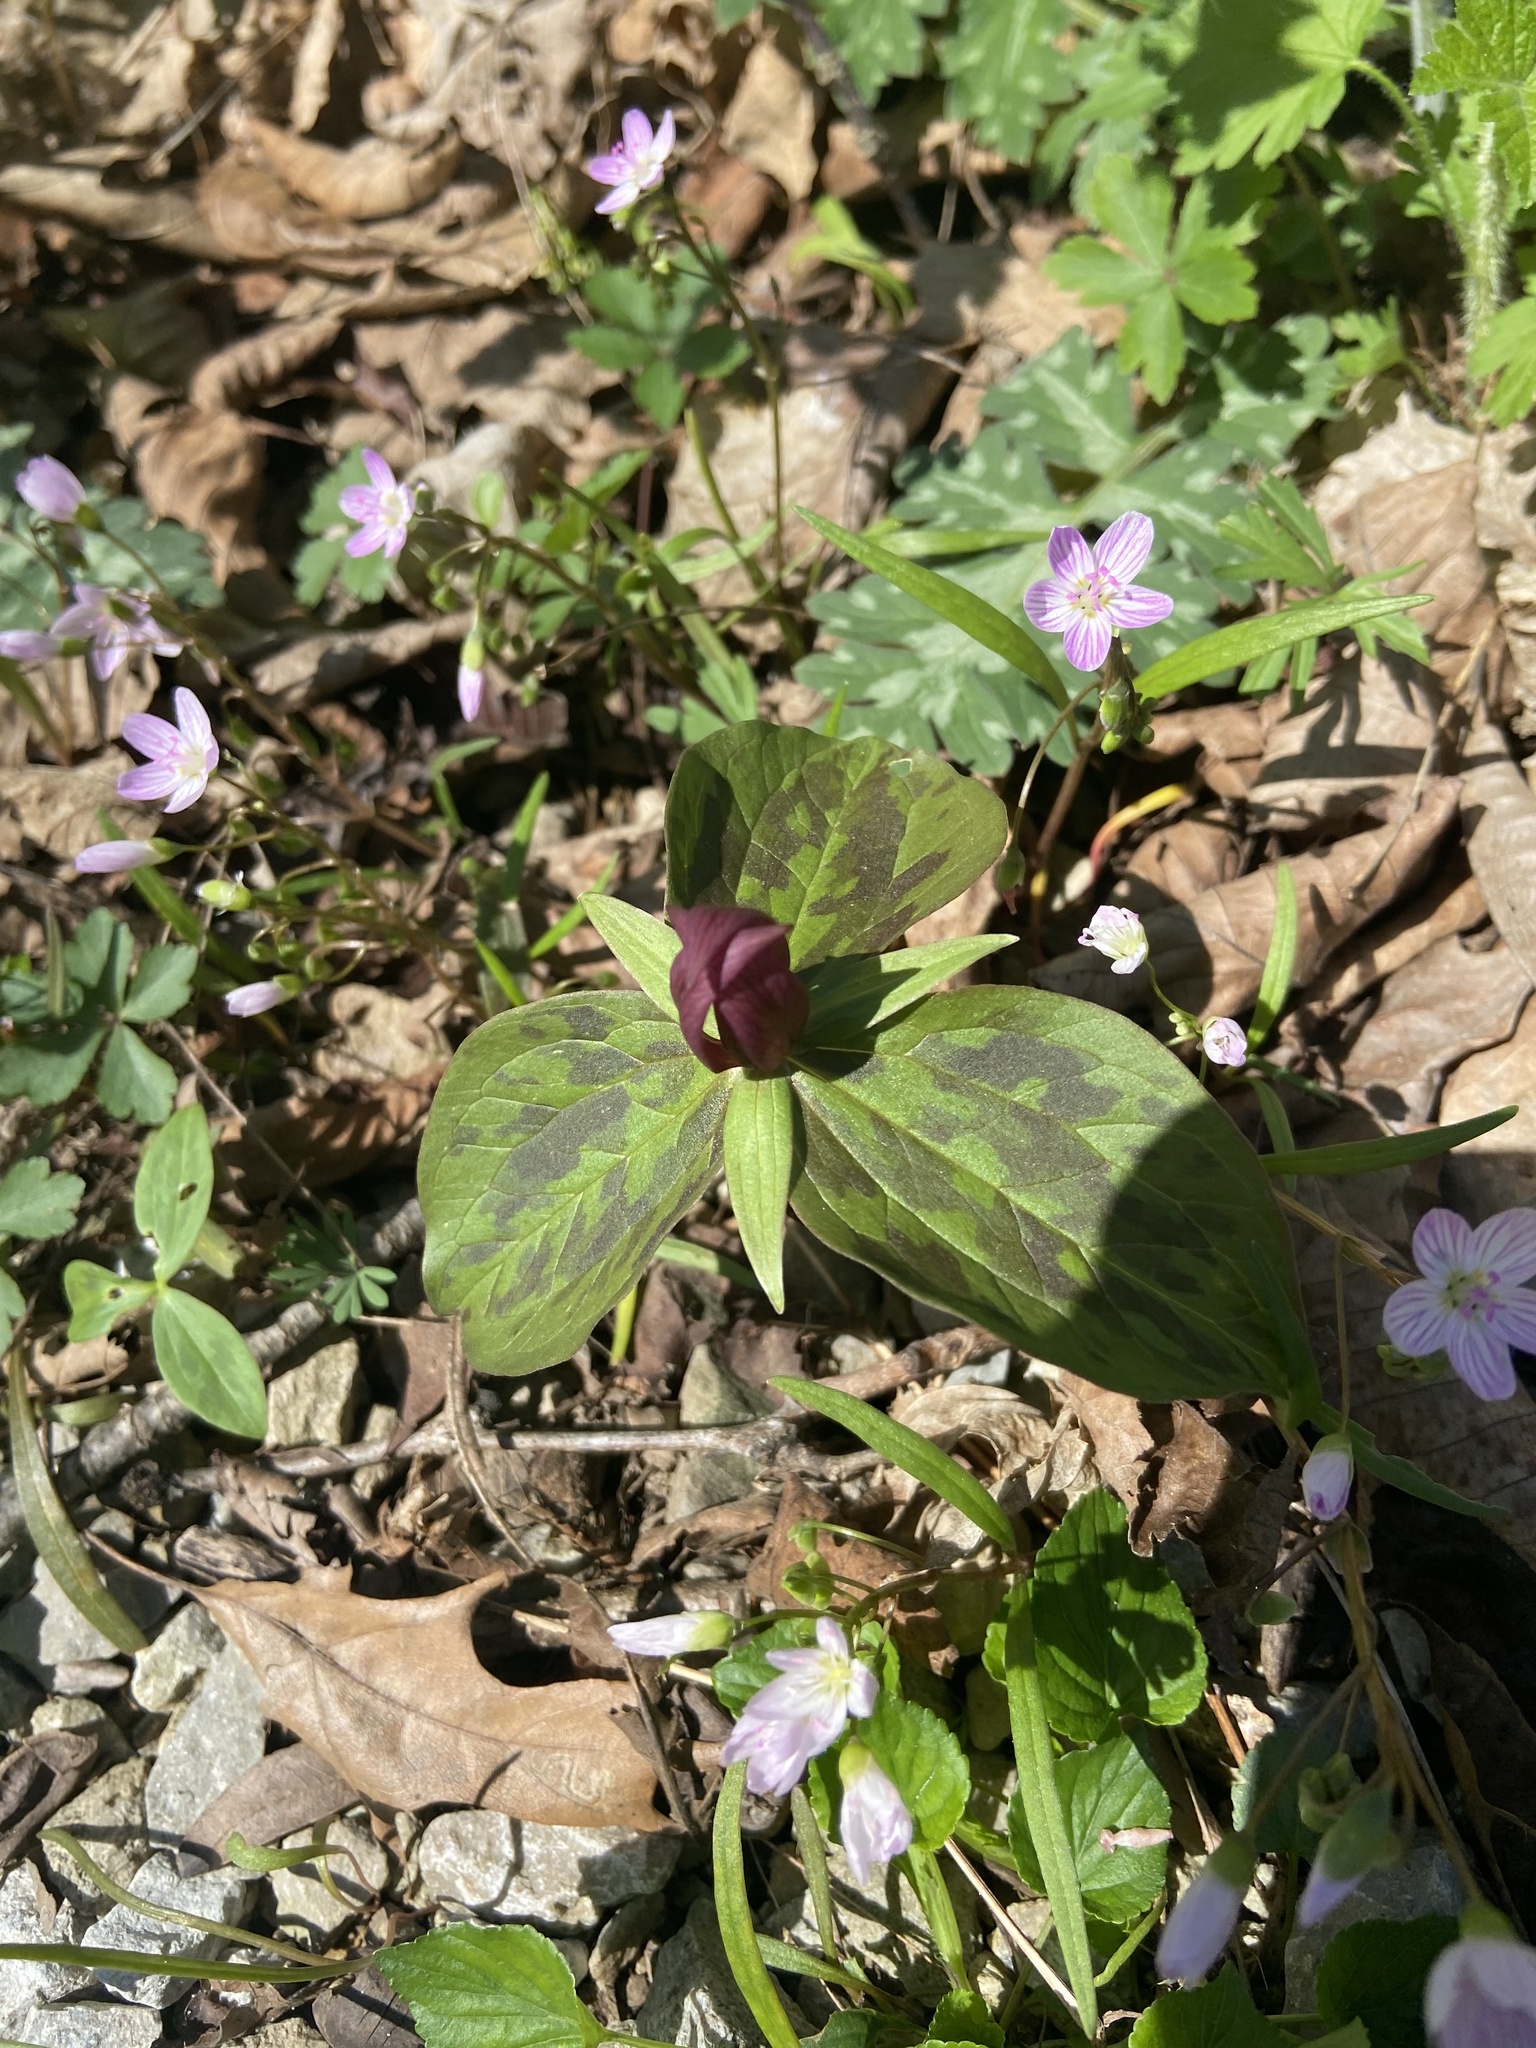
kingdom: Plantae
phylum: Tracheophyta
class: Liliopsida
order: Liliales
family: Melanthiaceae
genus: Trillium
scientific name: Trillium sessile
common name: Sessile trillium
